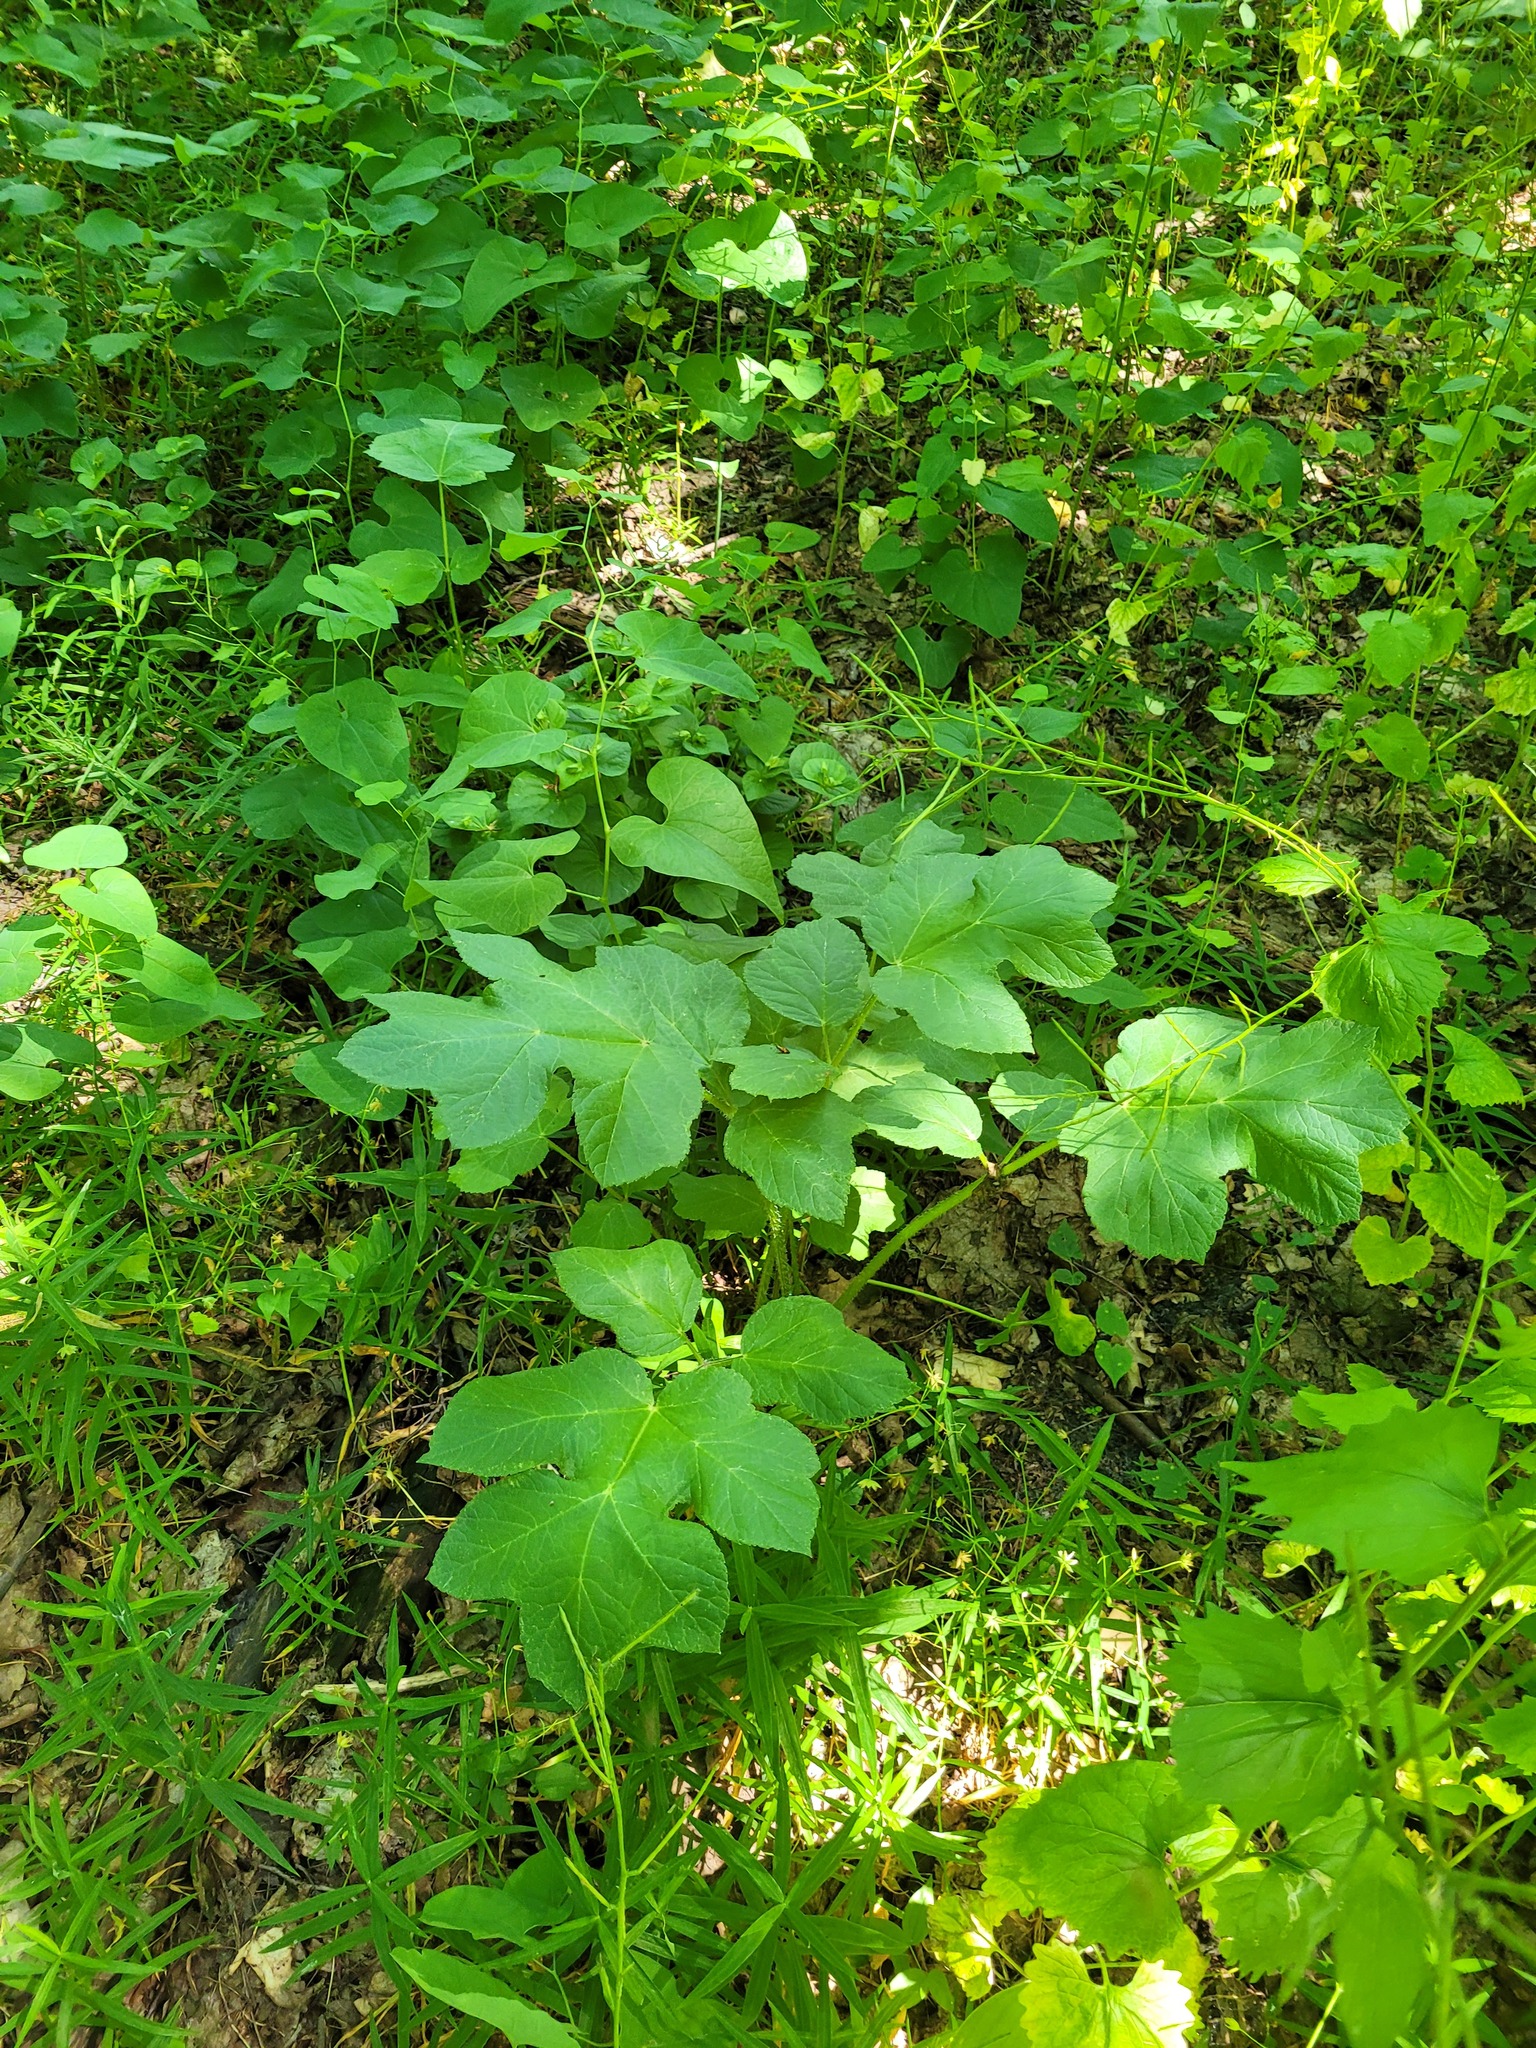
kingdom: Plantae
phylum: Tracheophyta
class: Magnoliopsida
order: Apiales
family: Apiaceae
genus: Heracleum
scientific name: Heracleum sphondylium
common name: Hogweed
